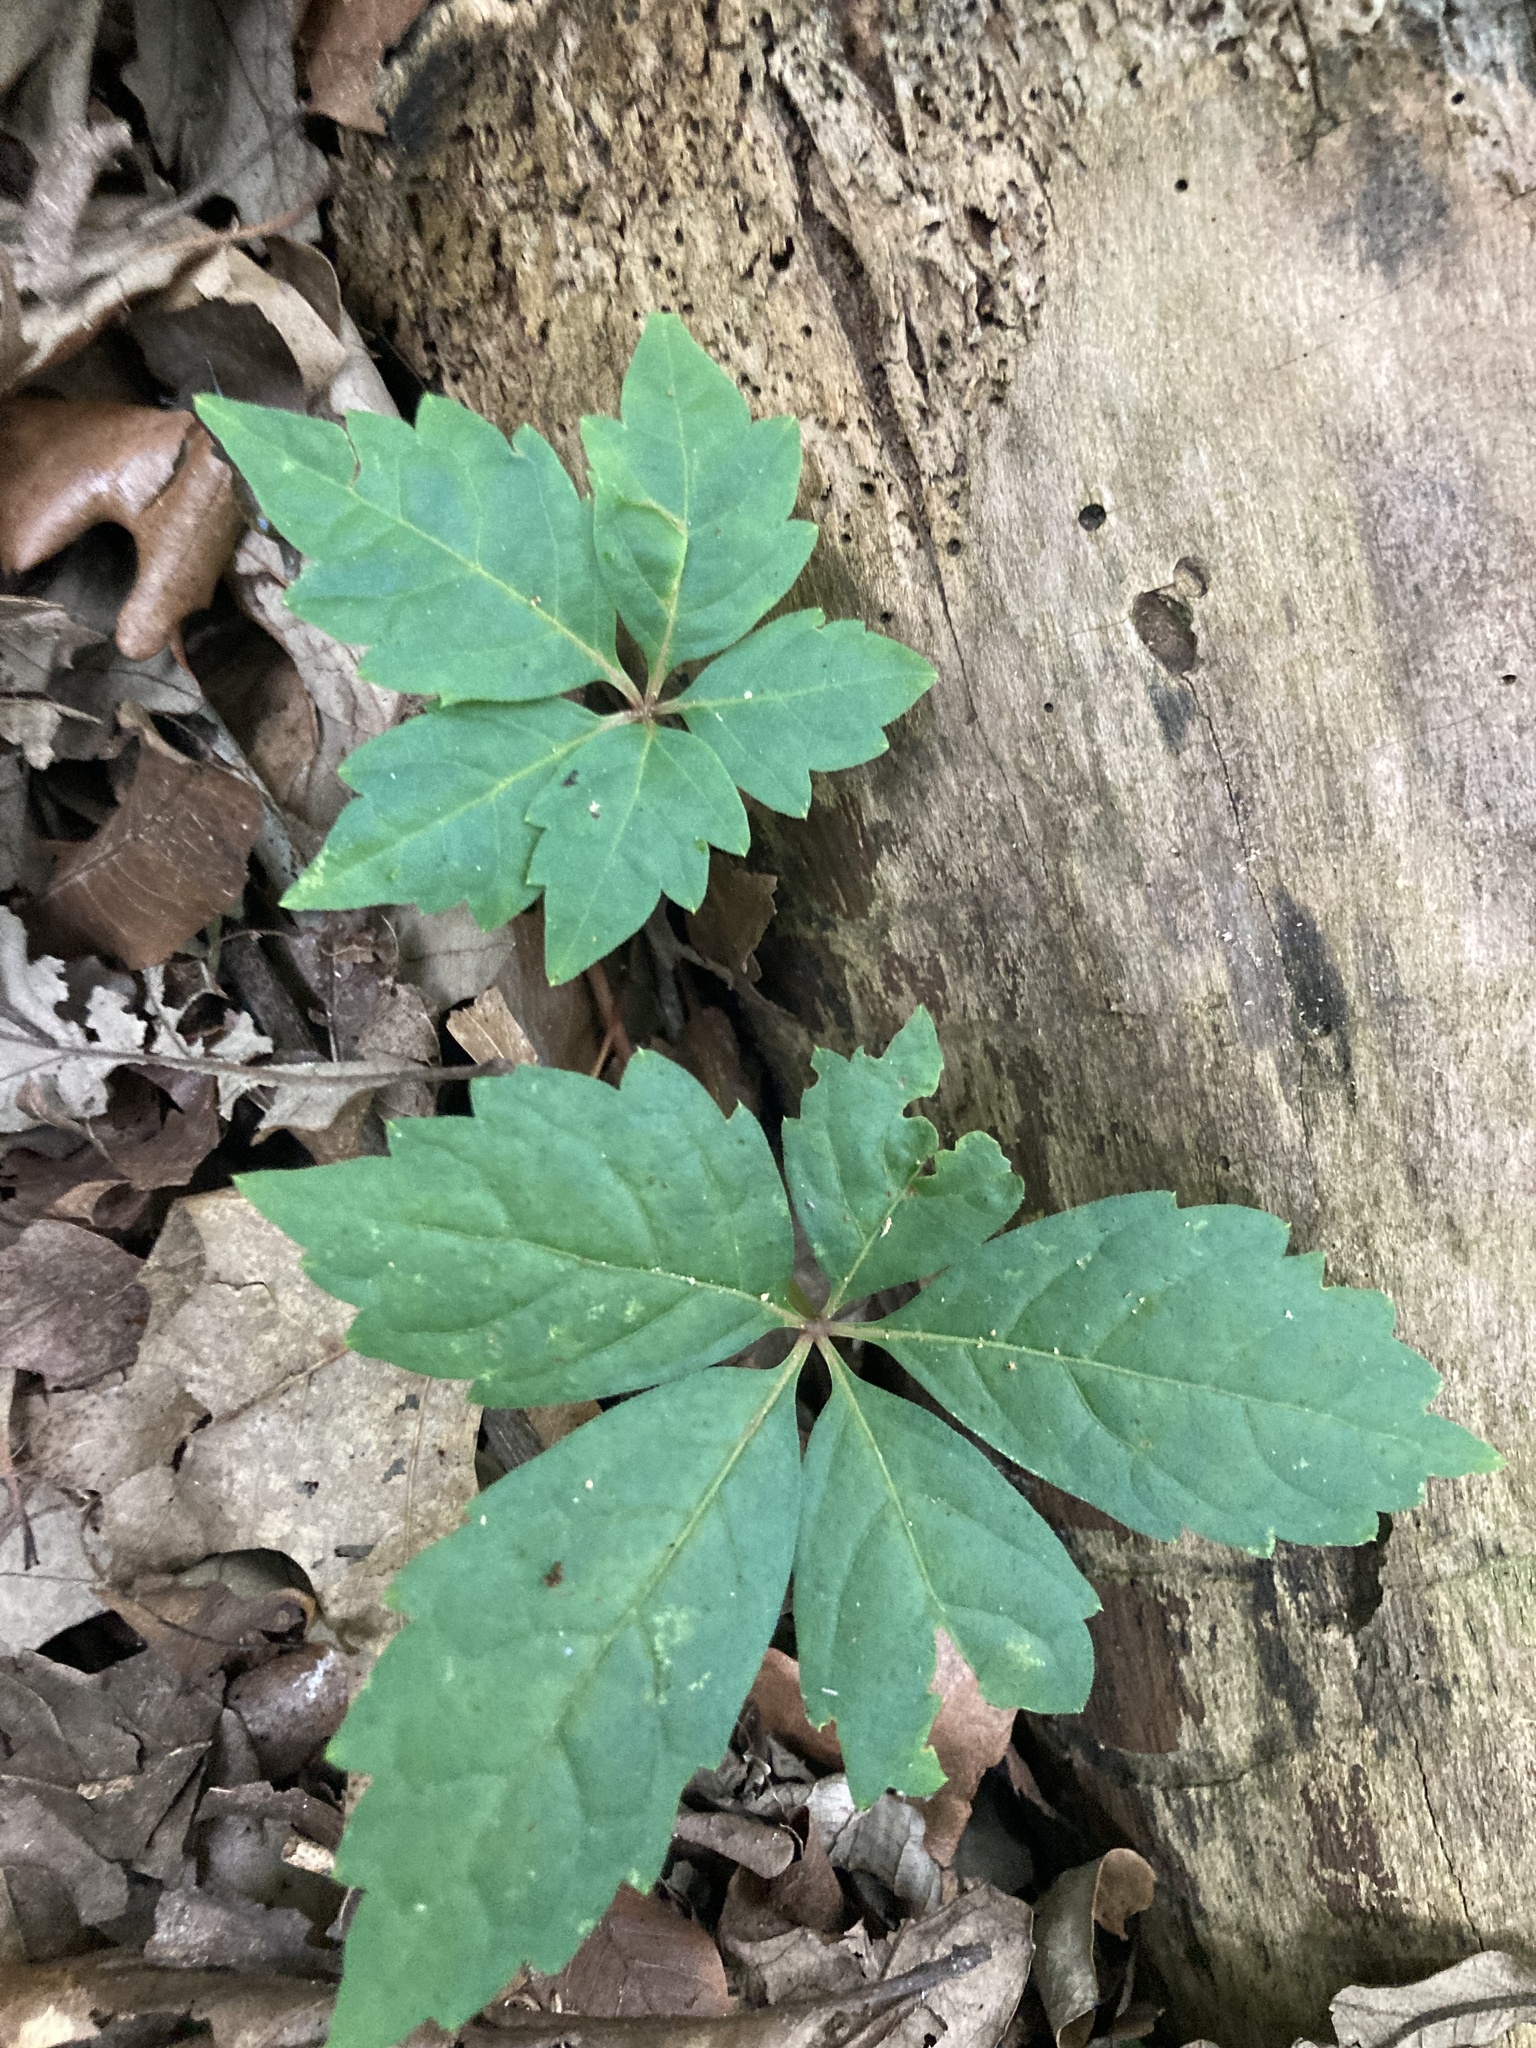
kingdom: Plantae
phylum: Tracheophyta
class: Magnoliopsida
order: Vitales
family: Vitaceae
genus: Parthenocissus
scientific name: Parthenocissus quinquefolia
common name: Virginia-creeper
